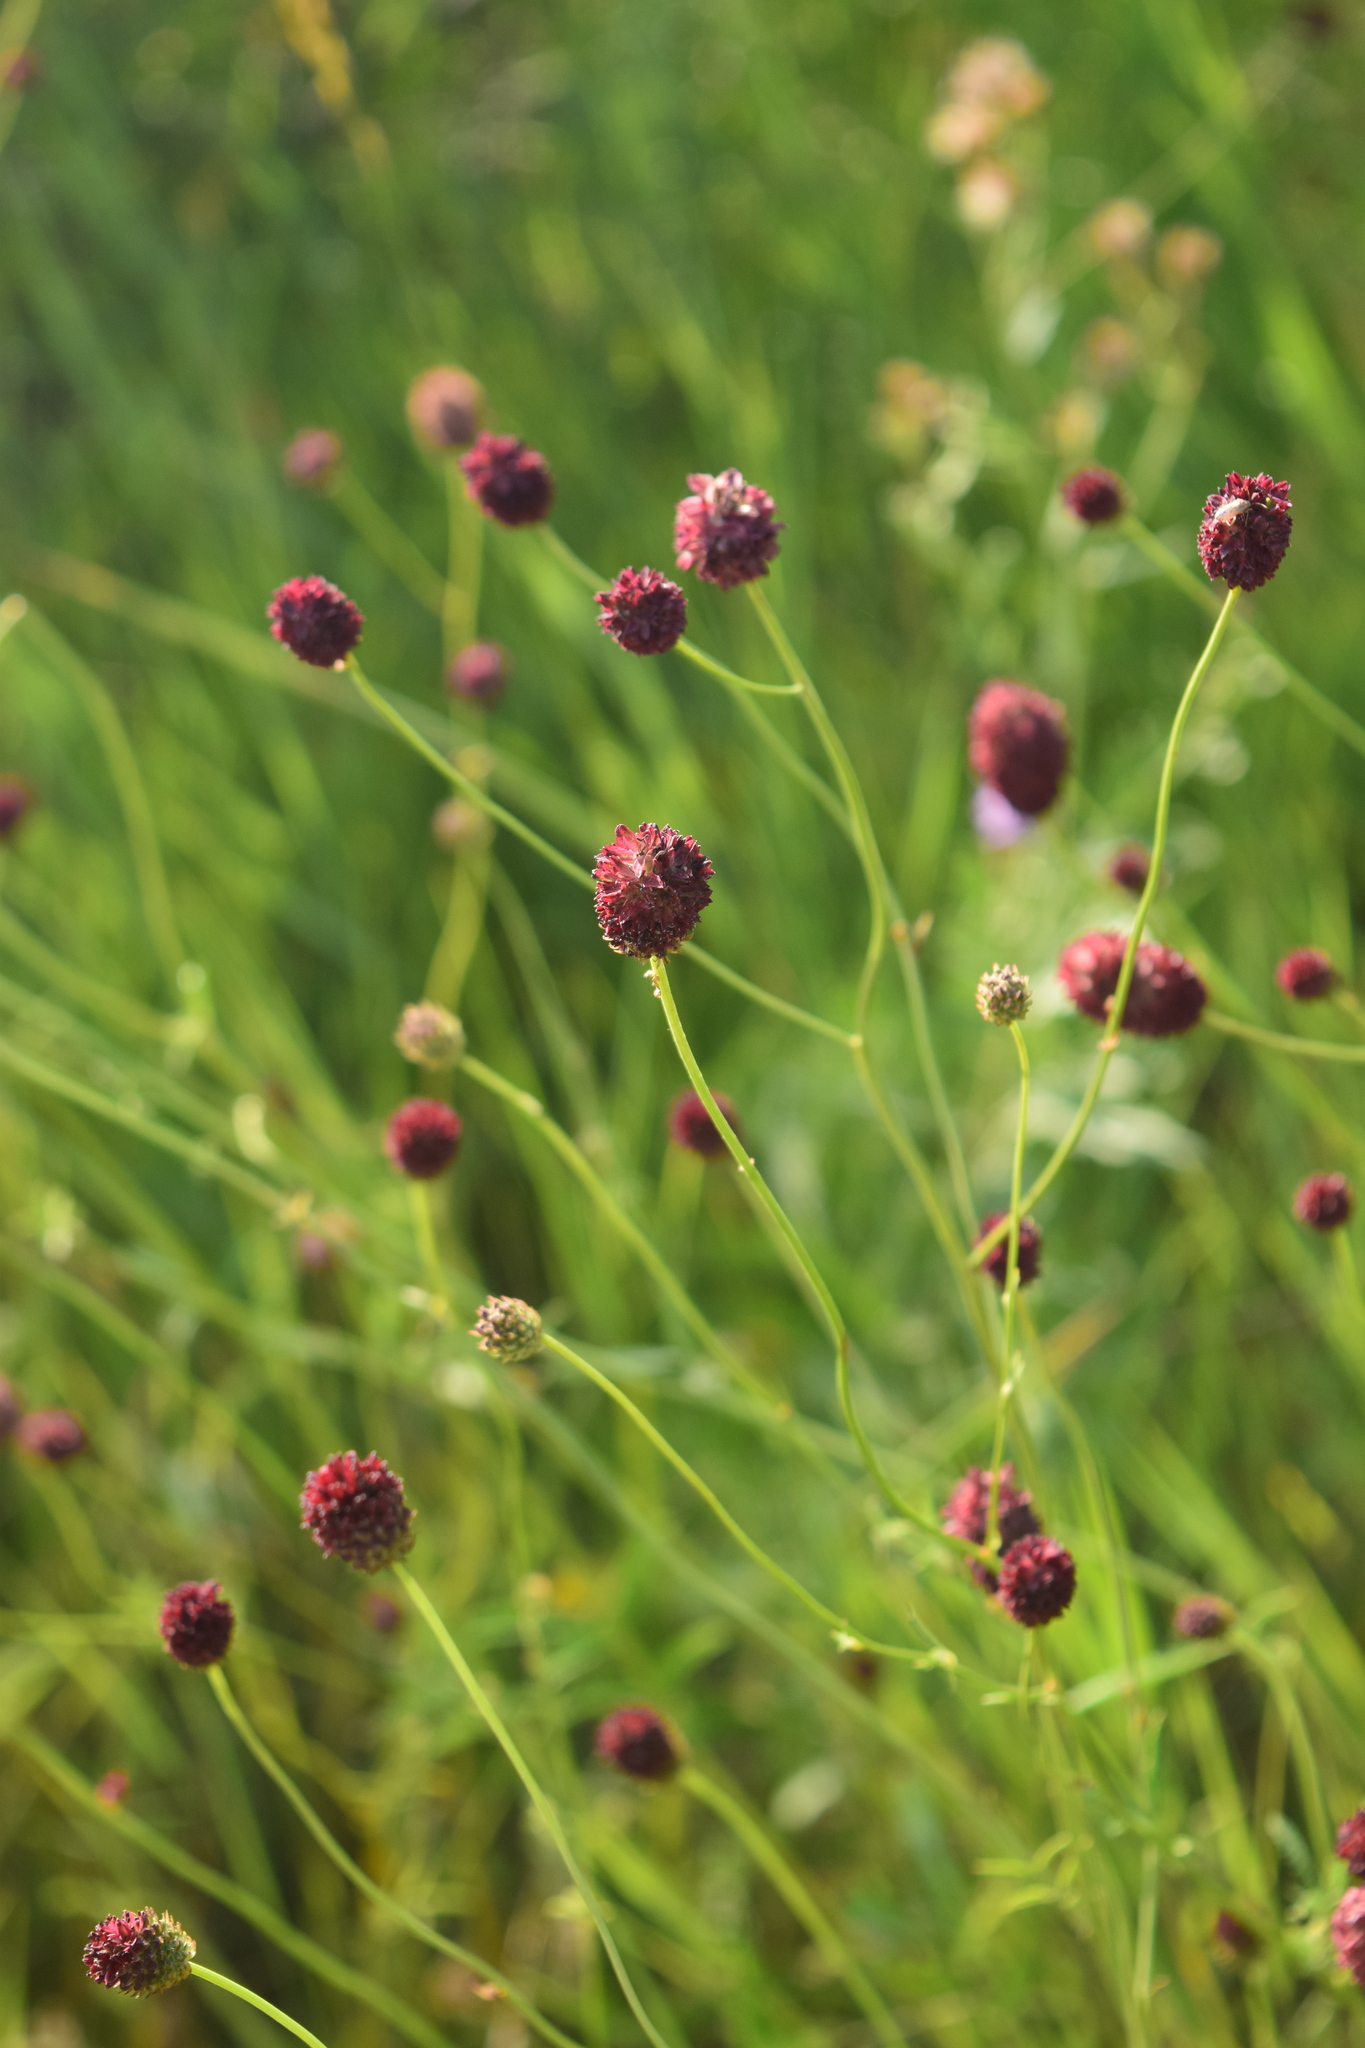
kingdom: Plantae
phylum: Tracheophyta
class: Magnoliopsida
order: Rosales
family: Rosaceae
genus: Sanguisorba
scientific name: Sanguisorba officinalis
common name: Great burnet
